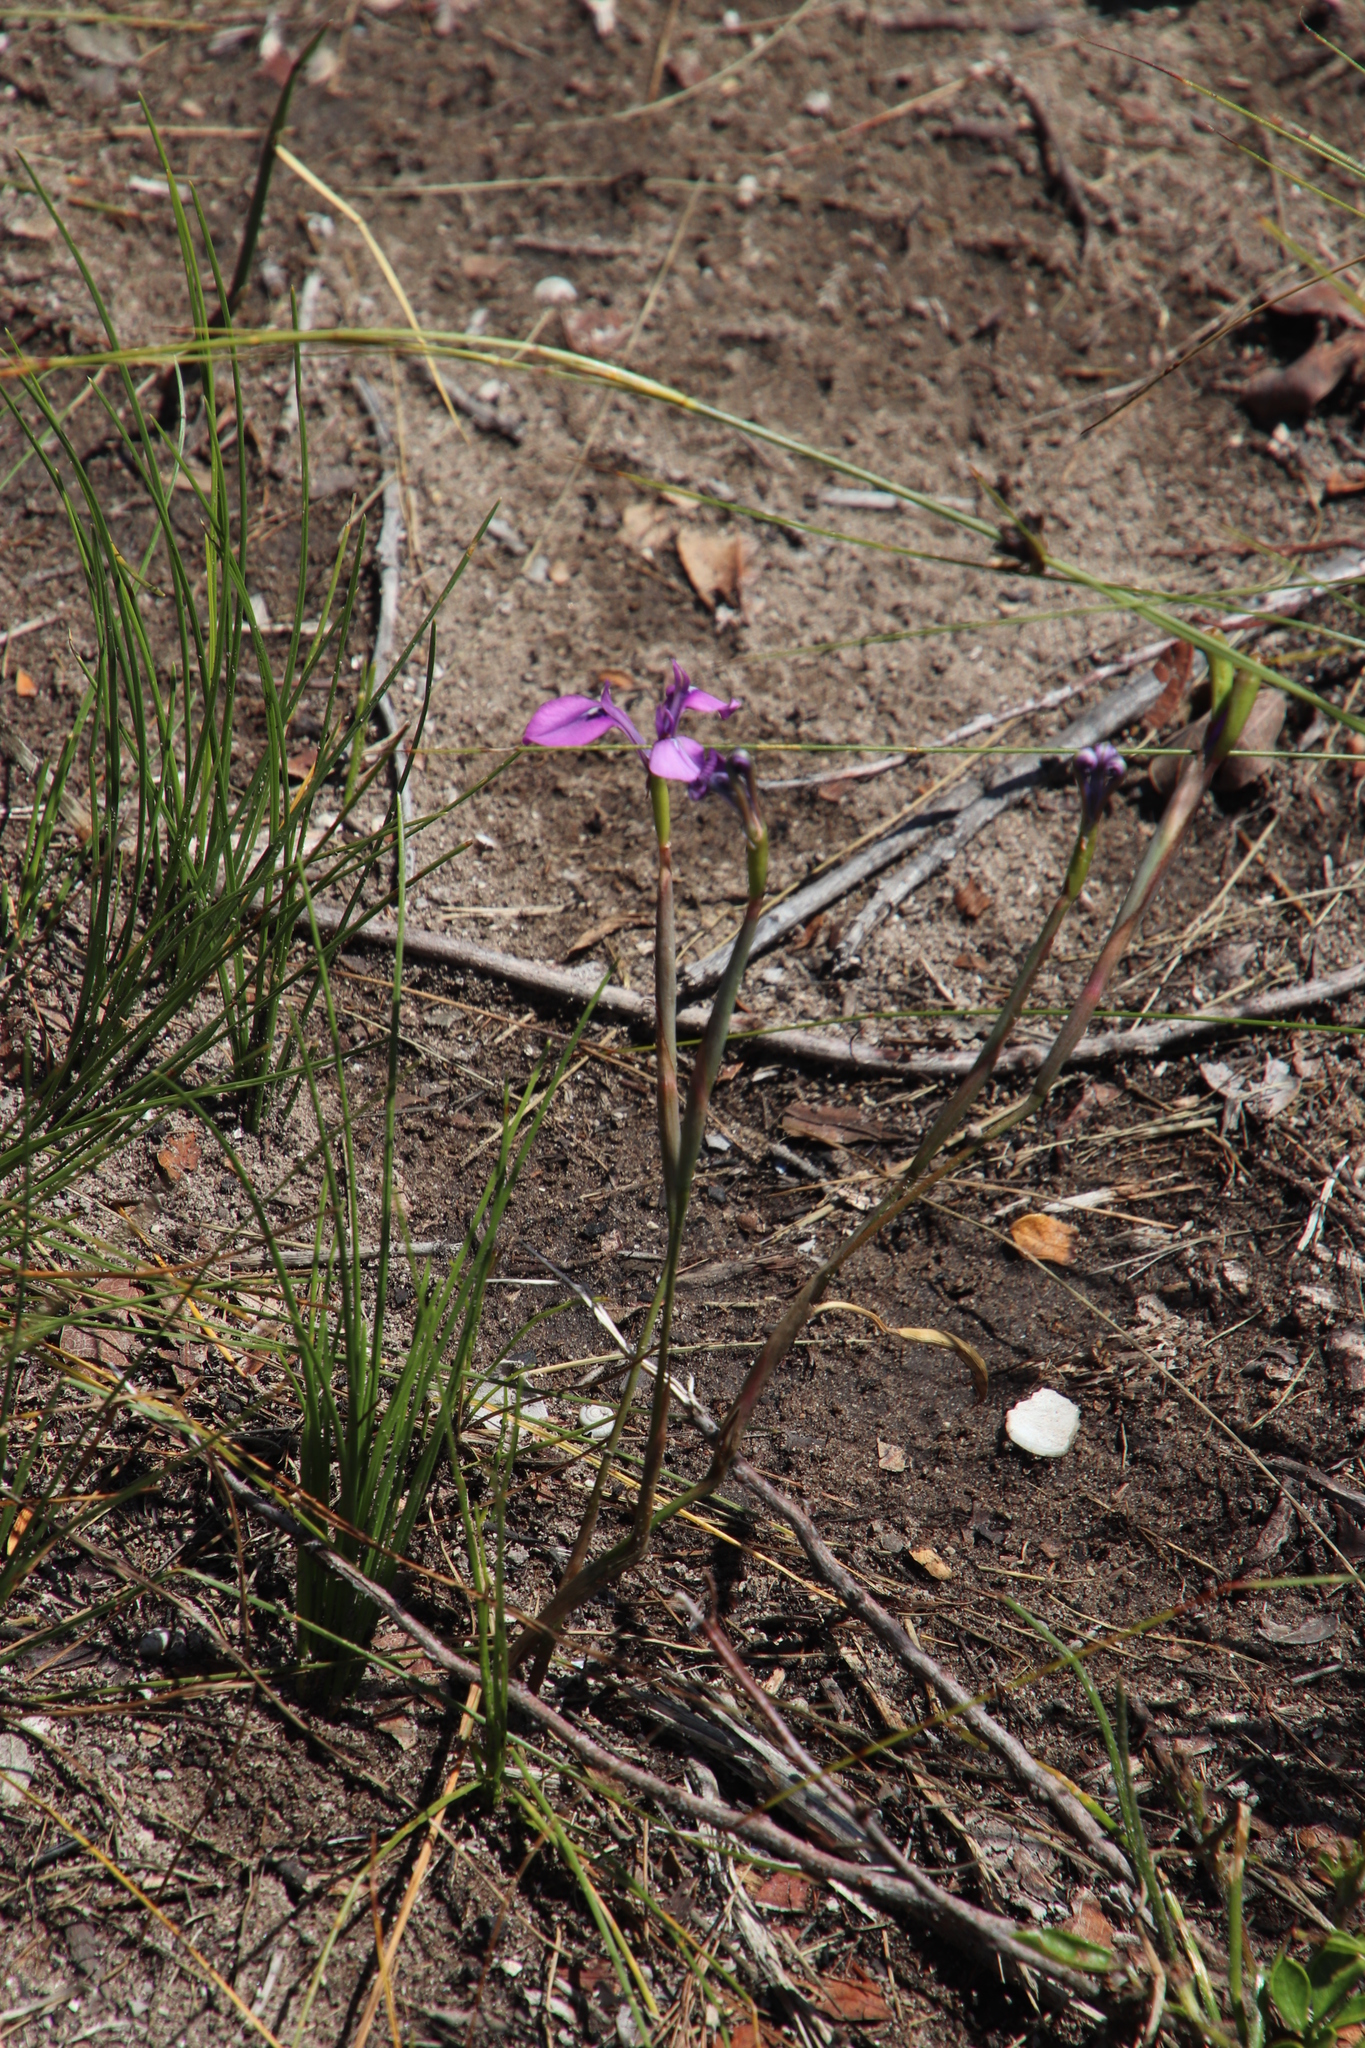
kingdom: Plantae
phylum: Tracheophyta
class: Liliopsida
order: Asparagales
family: Iridaceae
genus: Moraea
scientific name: Moraea tripetala
